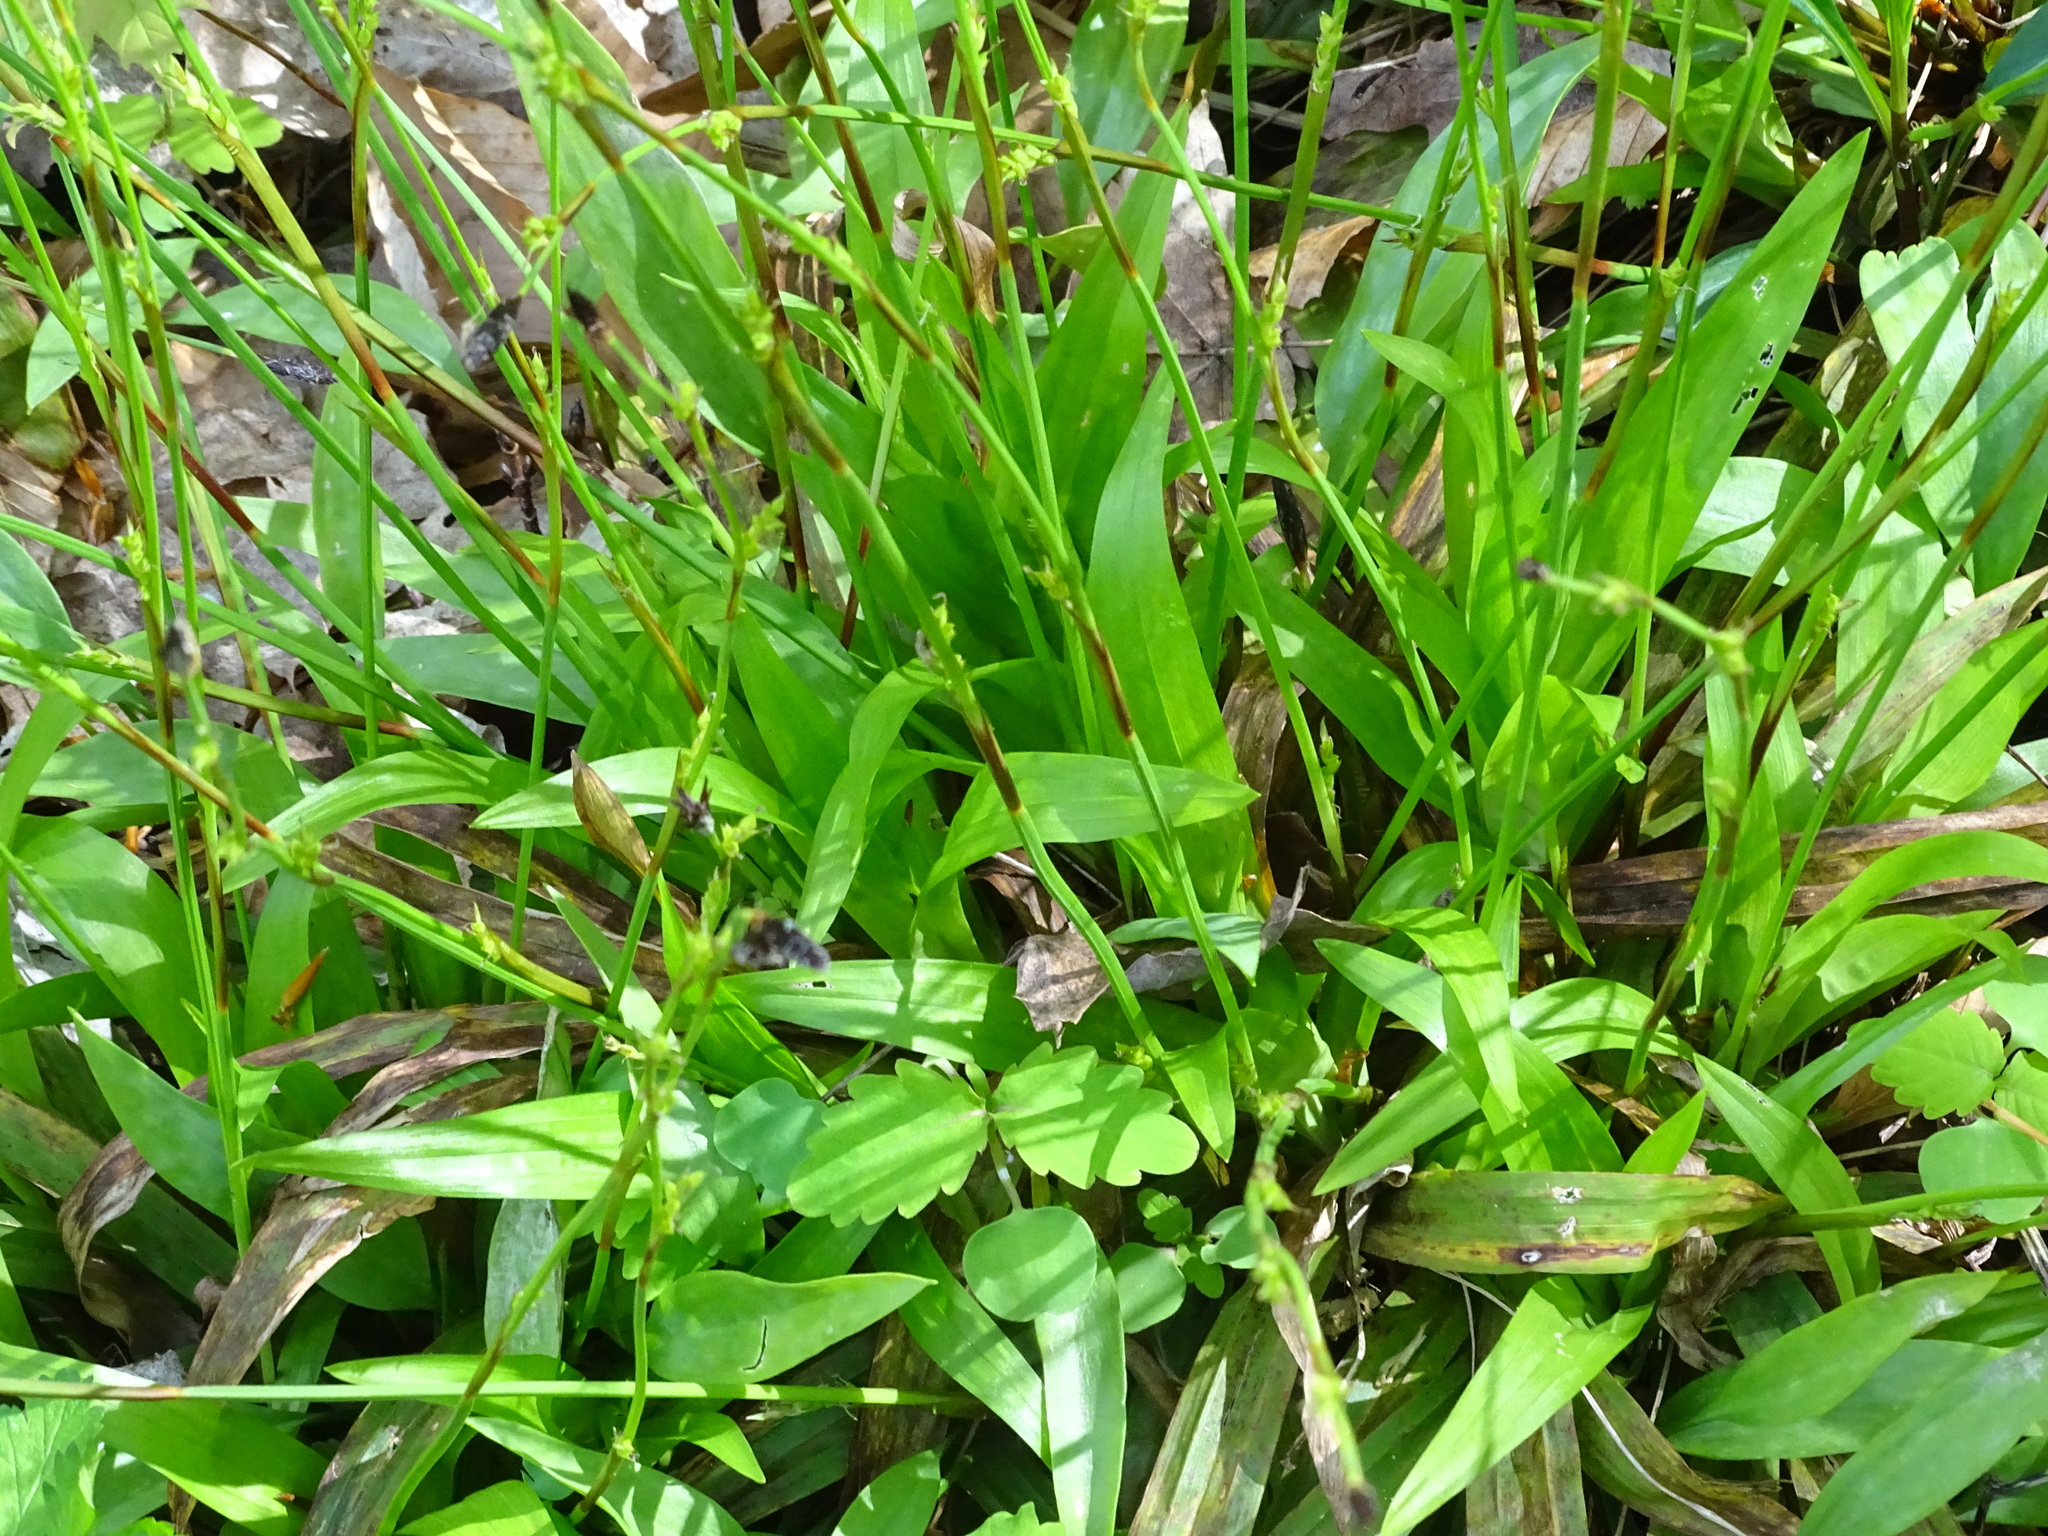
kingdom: Plantae
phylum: Tracheophyta
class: Liliopsida
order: Poales
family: Cyperaceae
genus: Carex
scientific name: Carex plantaginea
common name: Plantain-leaved sedge
